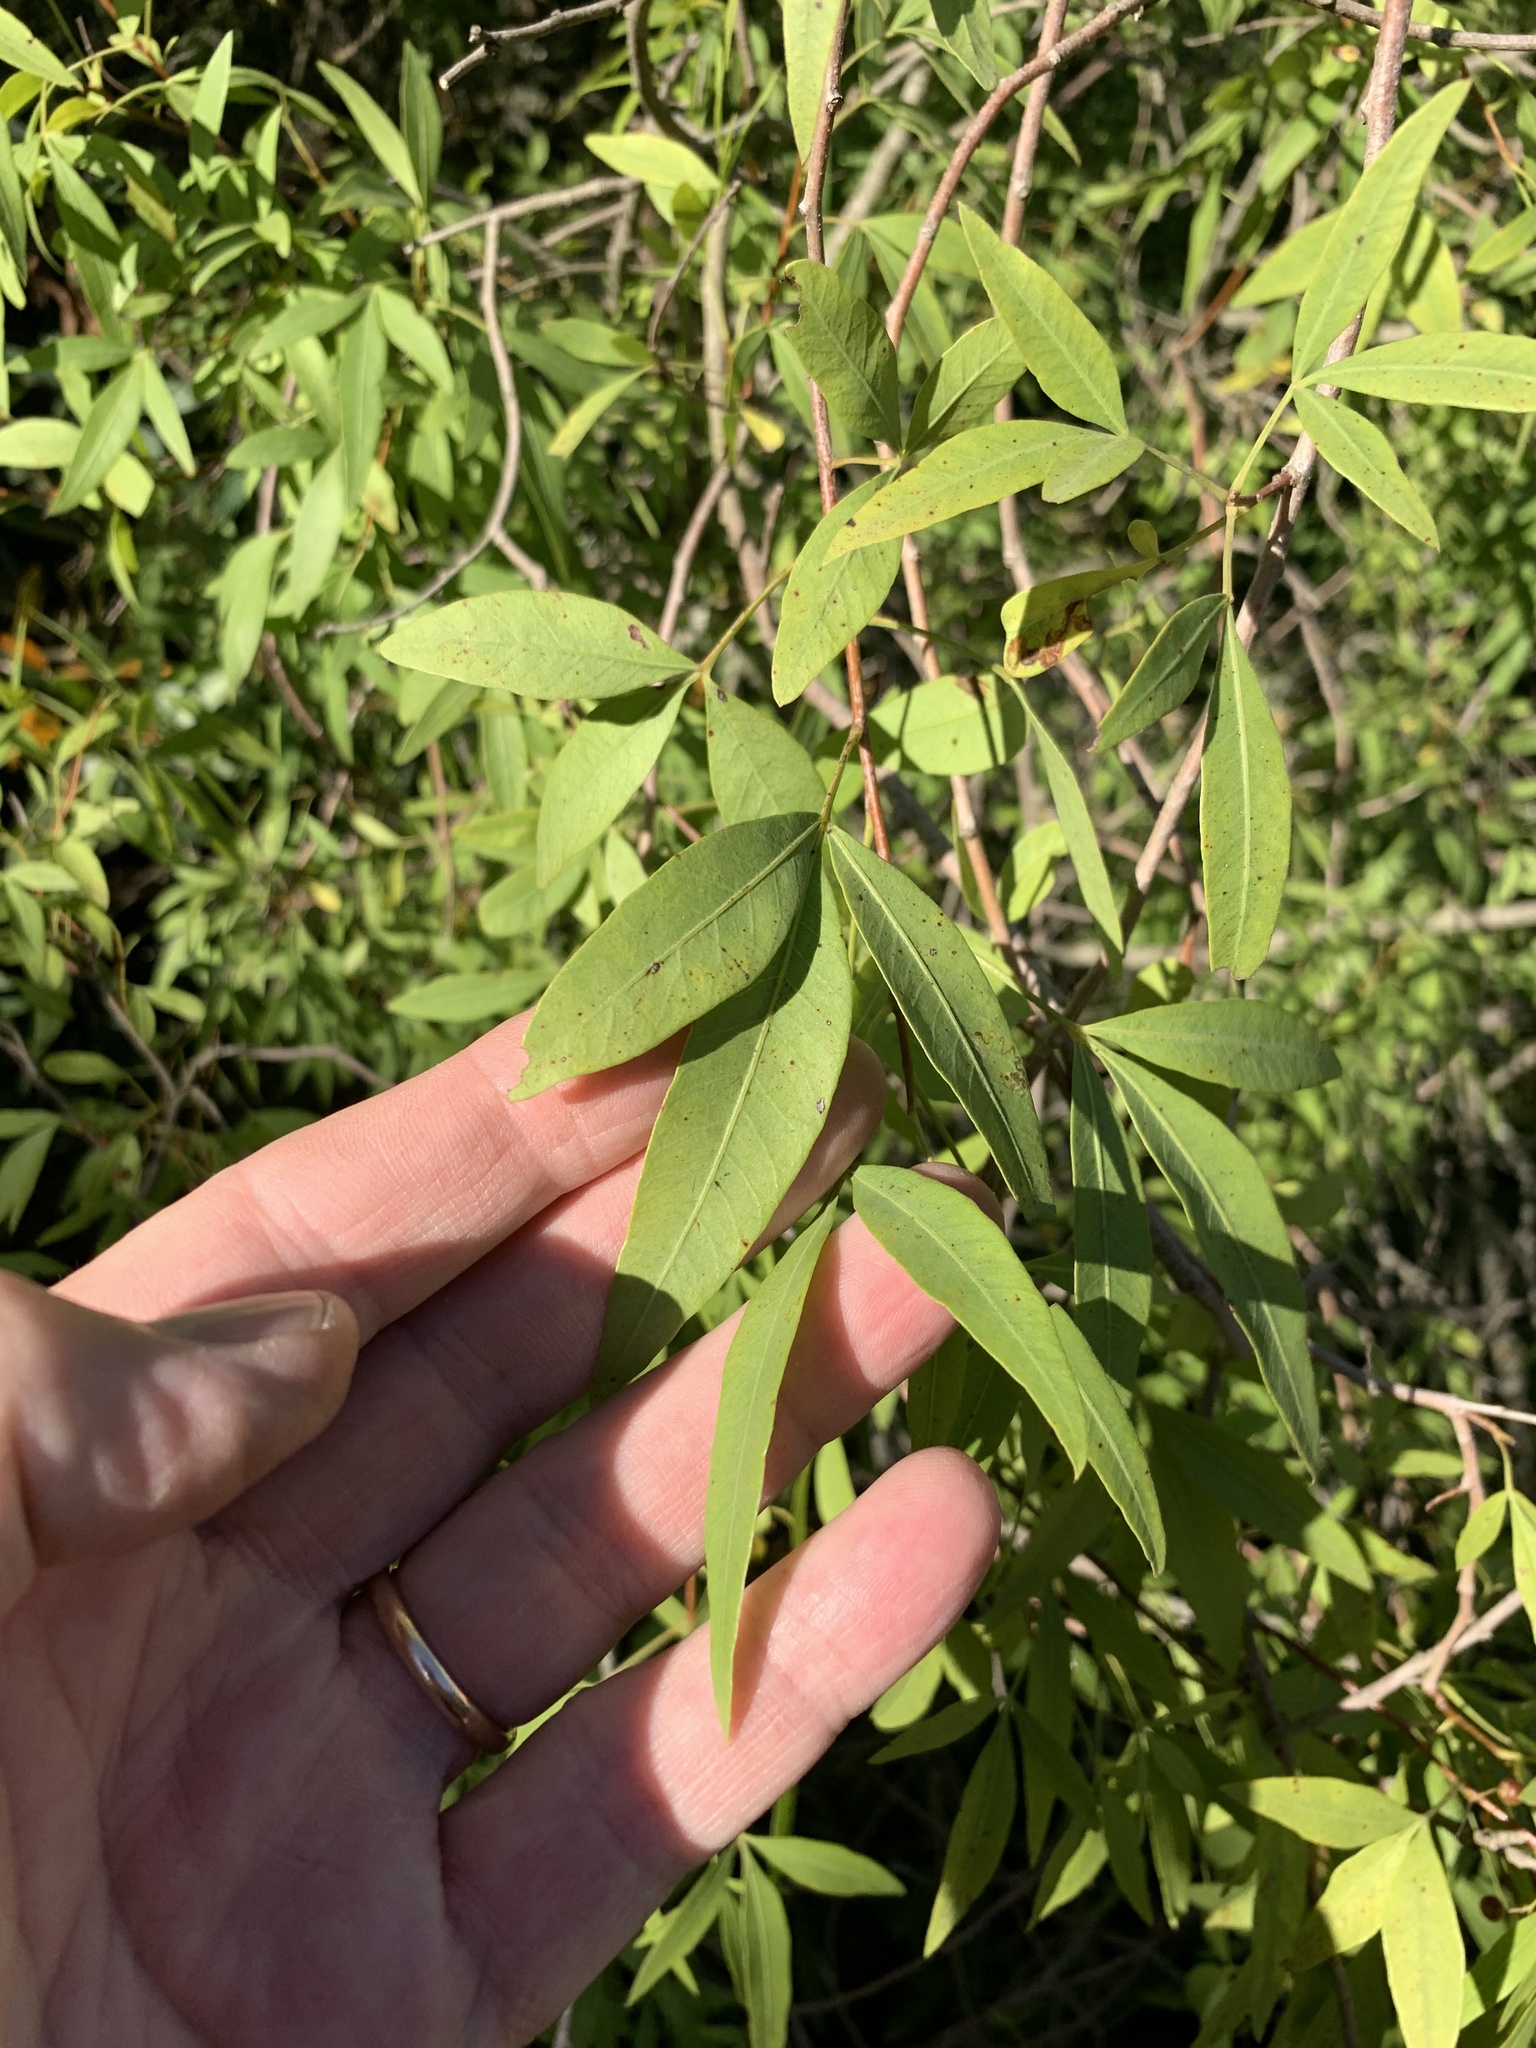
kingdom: Plantae
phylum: Tracheophyta
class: Magnoliopsida
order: Sapindales
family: Anacardiaceae
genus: Searsia
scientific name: Searsia pendulina
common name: White karee
